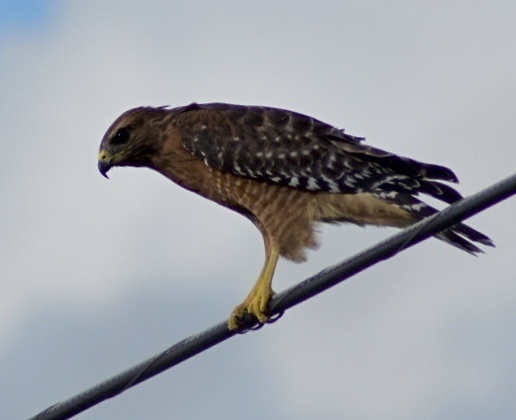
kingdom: Animalia
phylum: Chordata
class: Aves
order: Accipitriformes
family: Accipitridae
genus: Buteo
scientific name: Buteo lineatus
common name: Red-shouldered hawk
